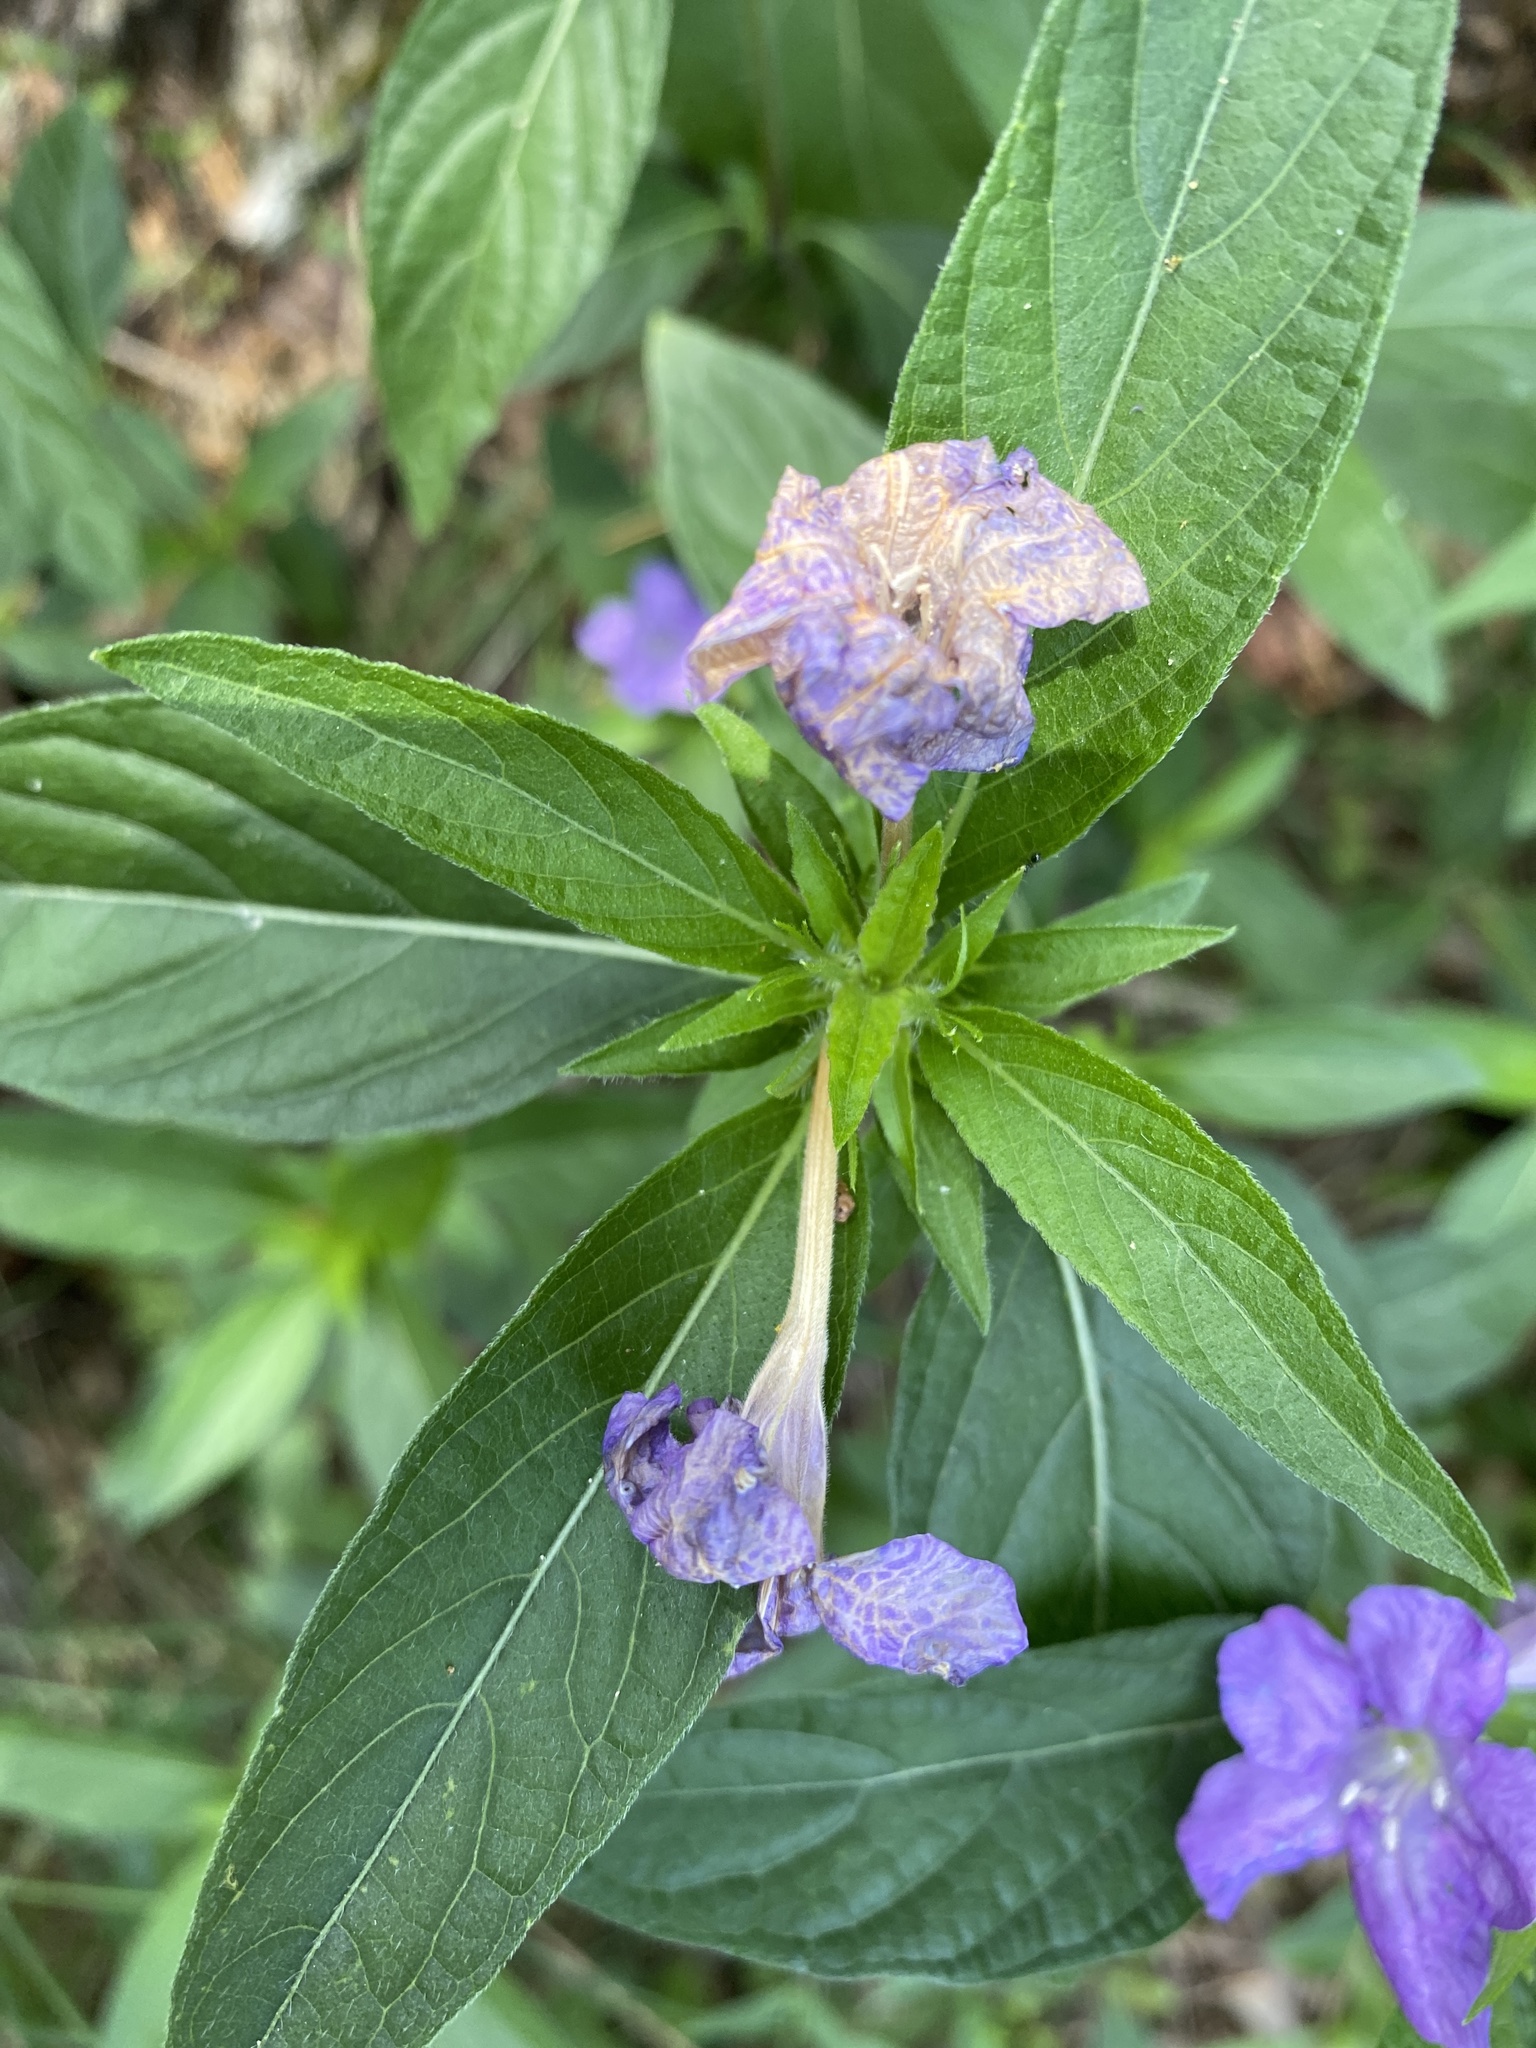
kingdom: Plantae
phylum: Tracheophyta
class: Magnoliopsida
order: Lamiales
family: Acanthaceae
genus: Ruellia
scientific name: Ruellia caroliniensis
